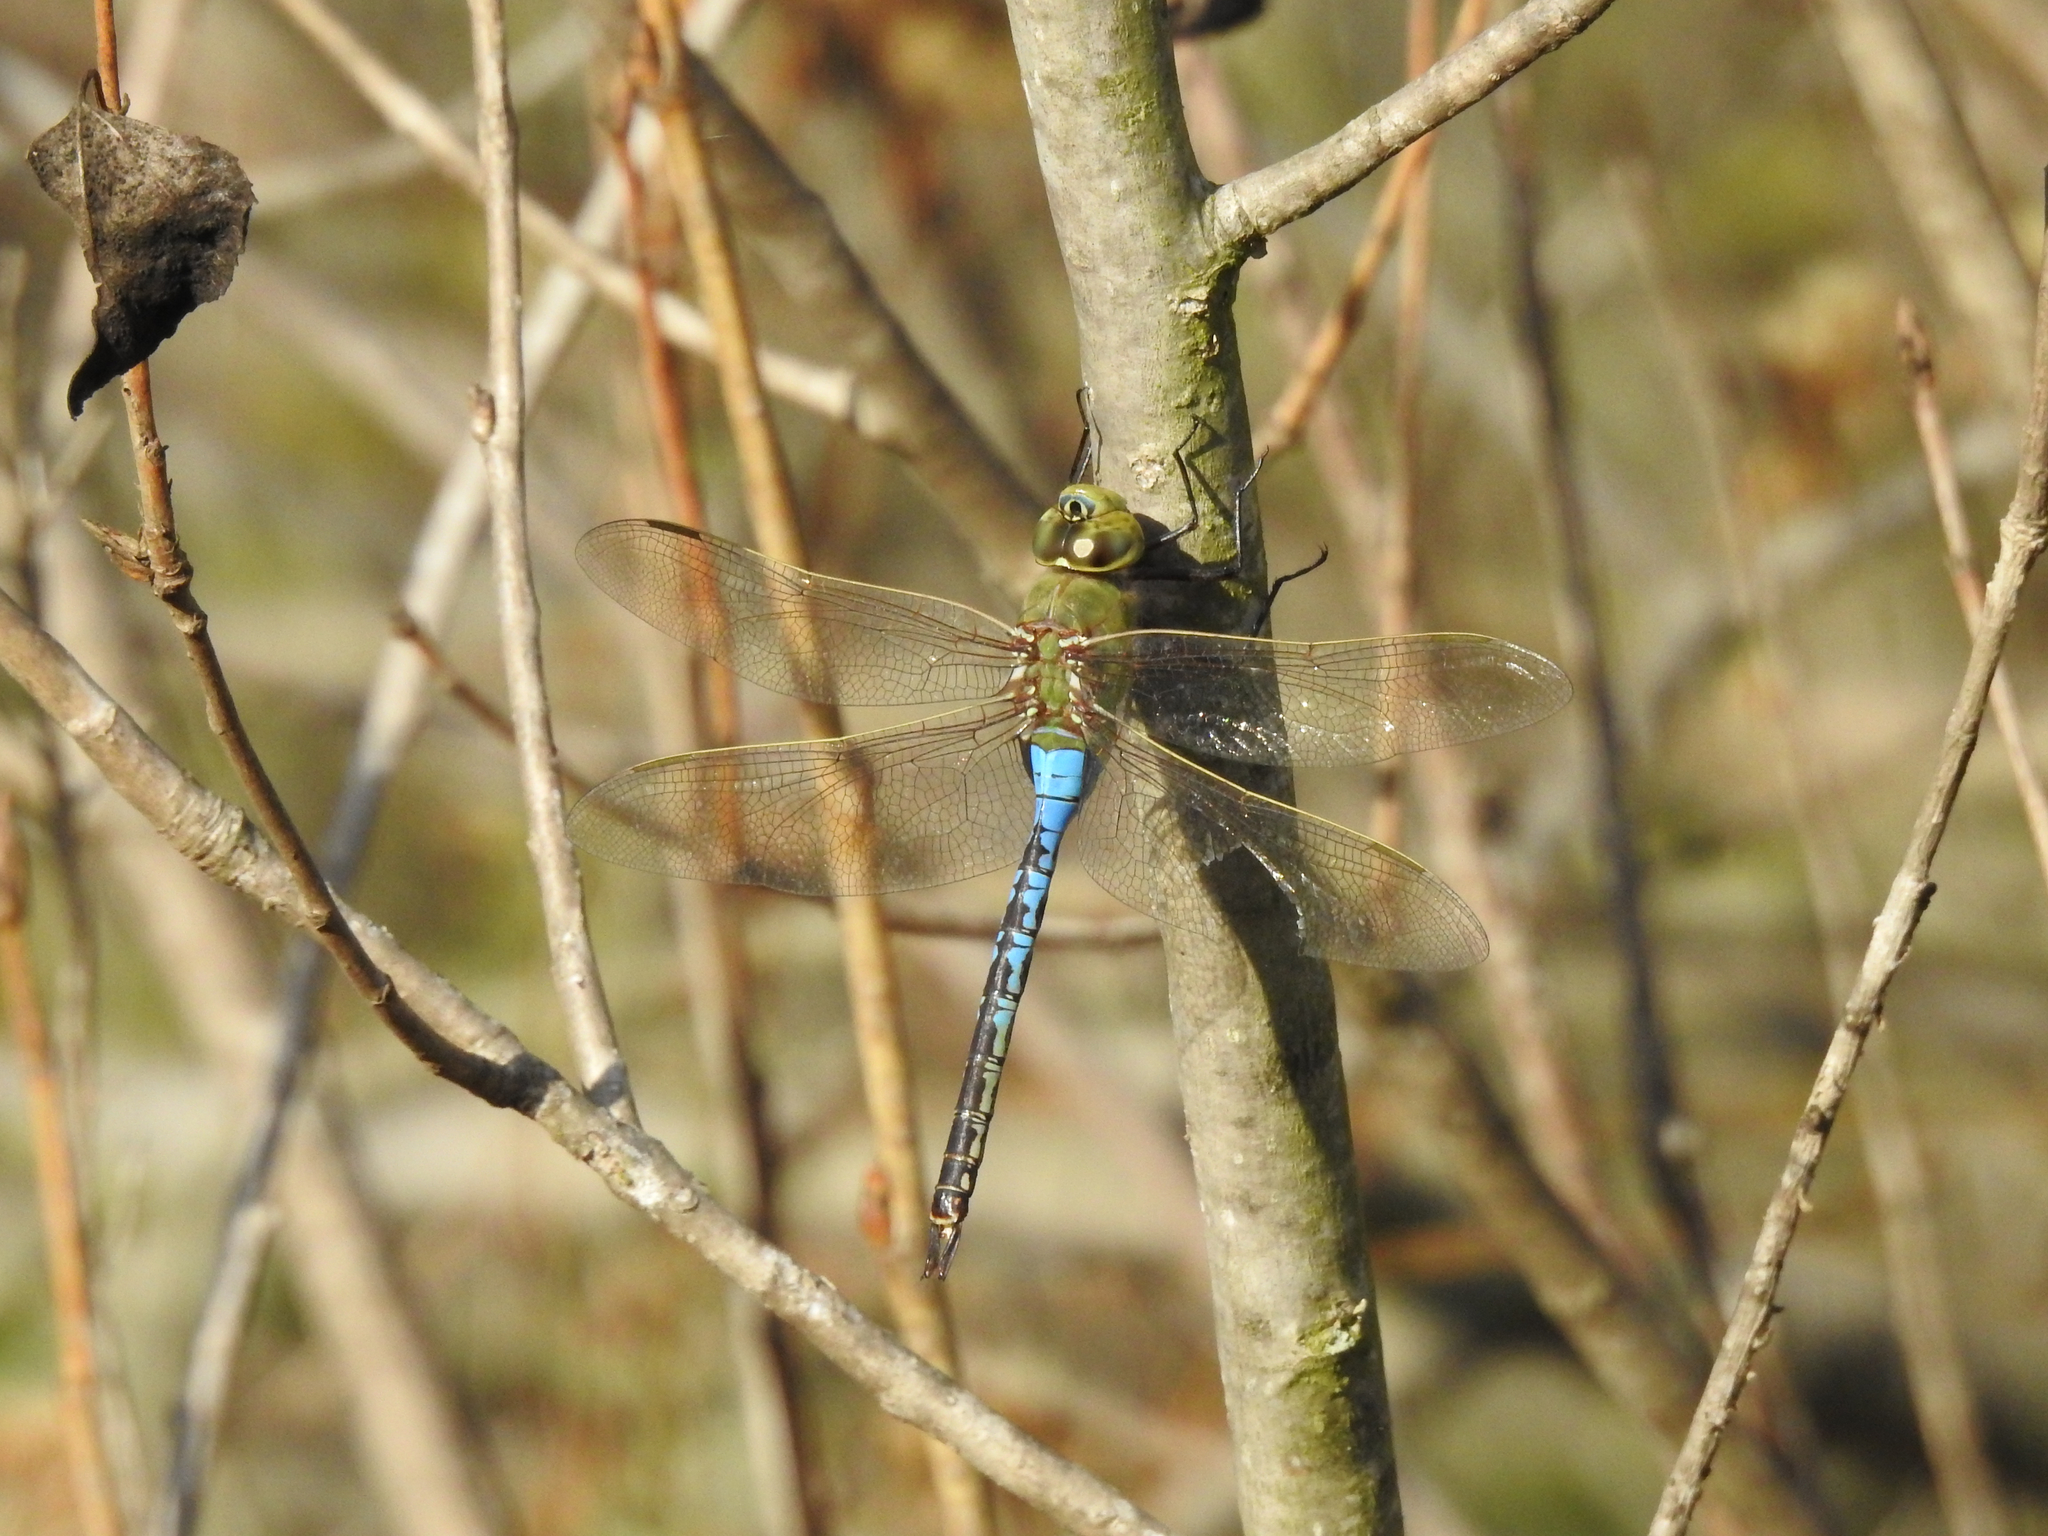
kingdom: Animalia
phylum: Arthropoda
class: Insecta
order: Odonata
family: Aeshnidae
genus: Anax
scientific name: Anax junius
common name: Common green darner
